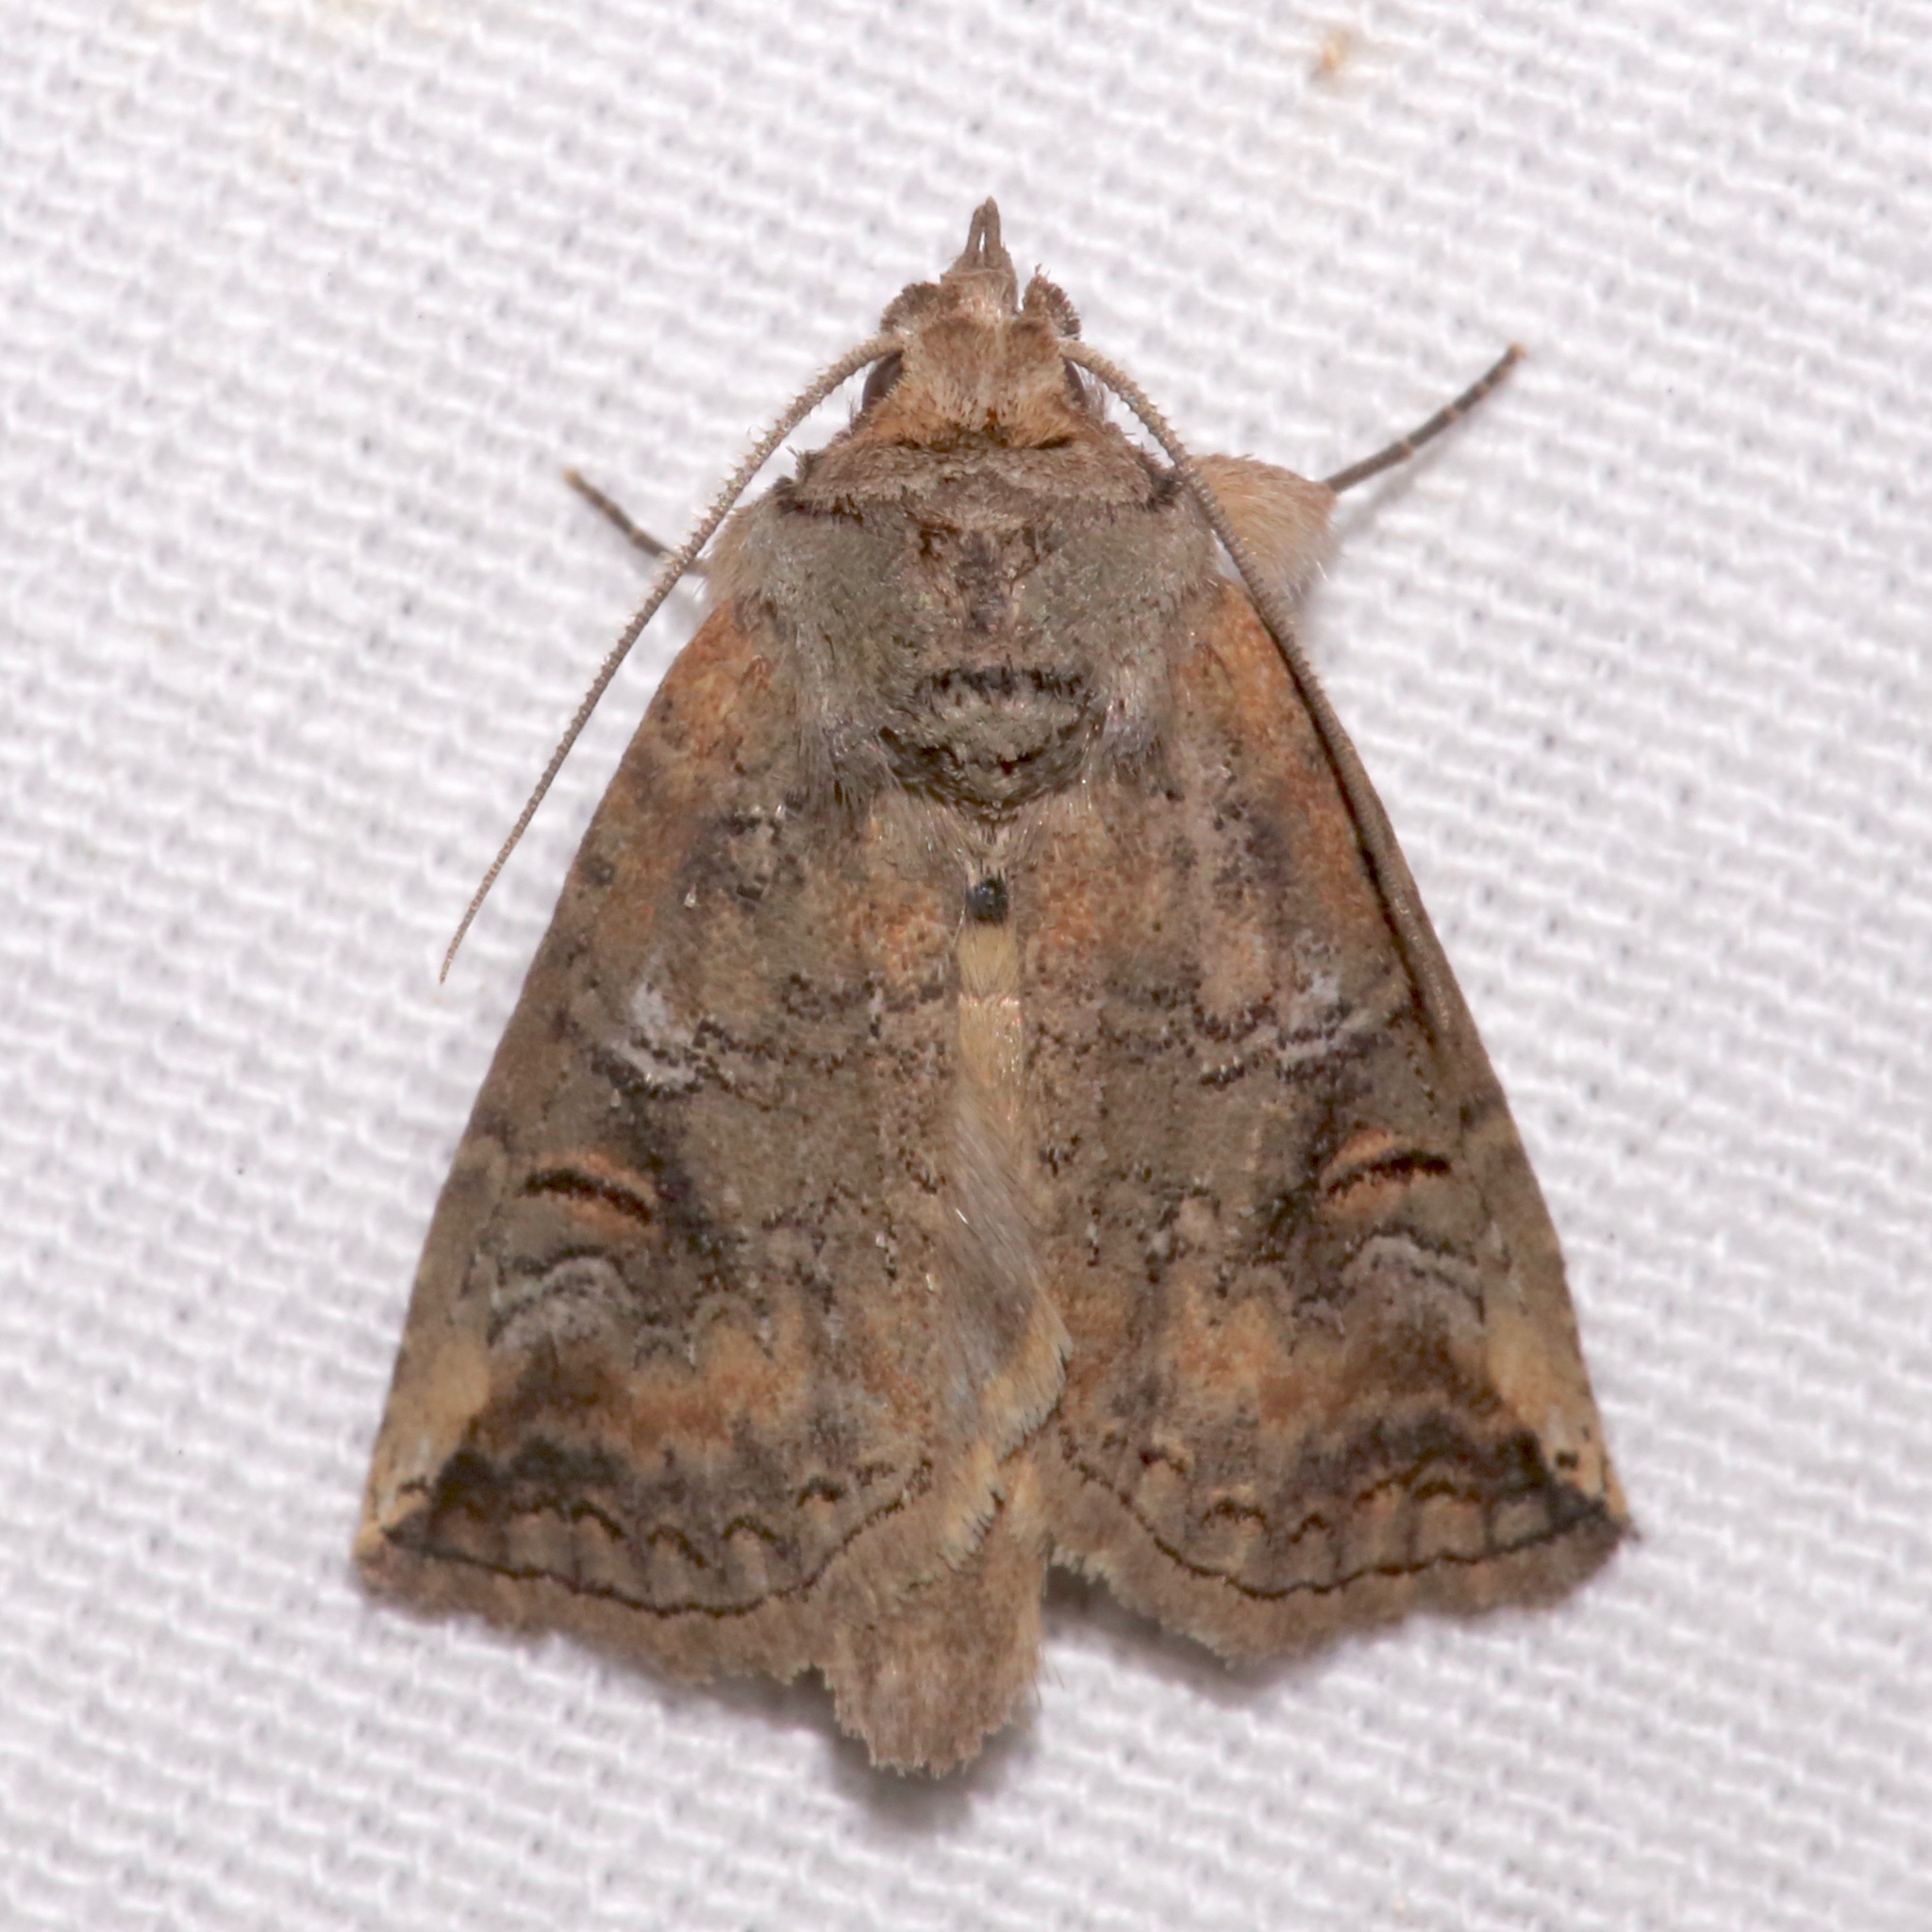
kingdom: Animalia
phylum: Arthropoda
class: Insecta
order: Lepidoptera
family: Notodontidae
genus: Elasmia
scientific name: Elasmia packardii
